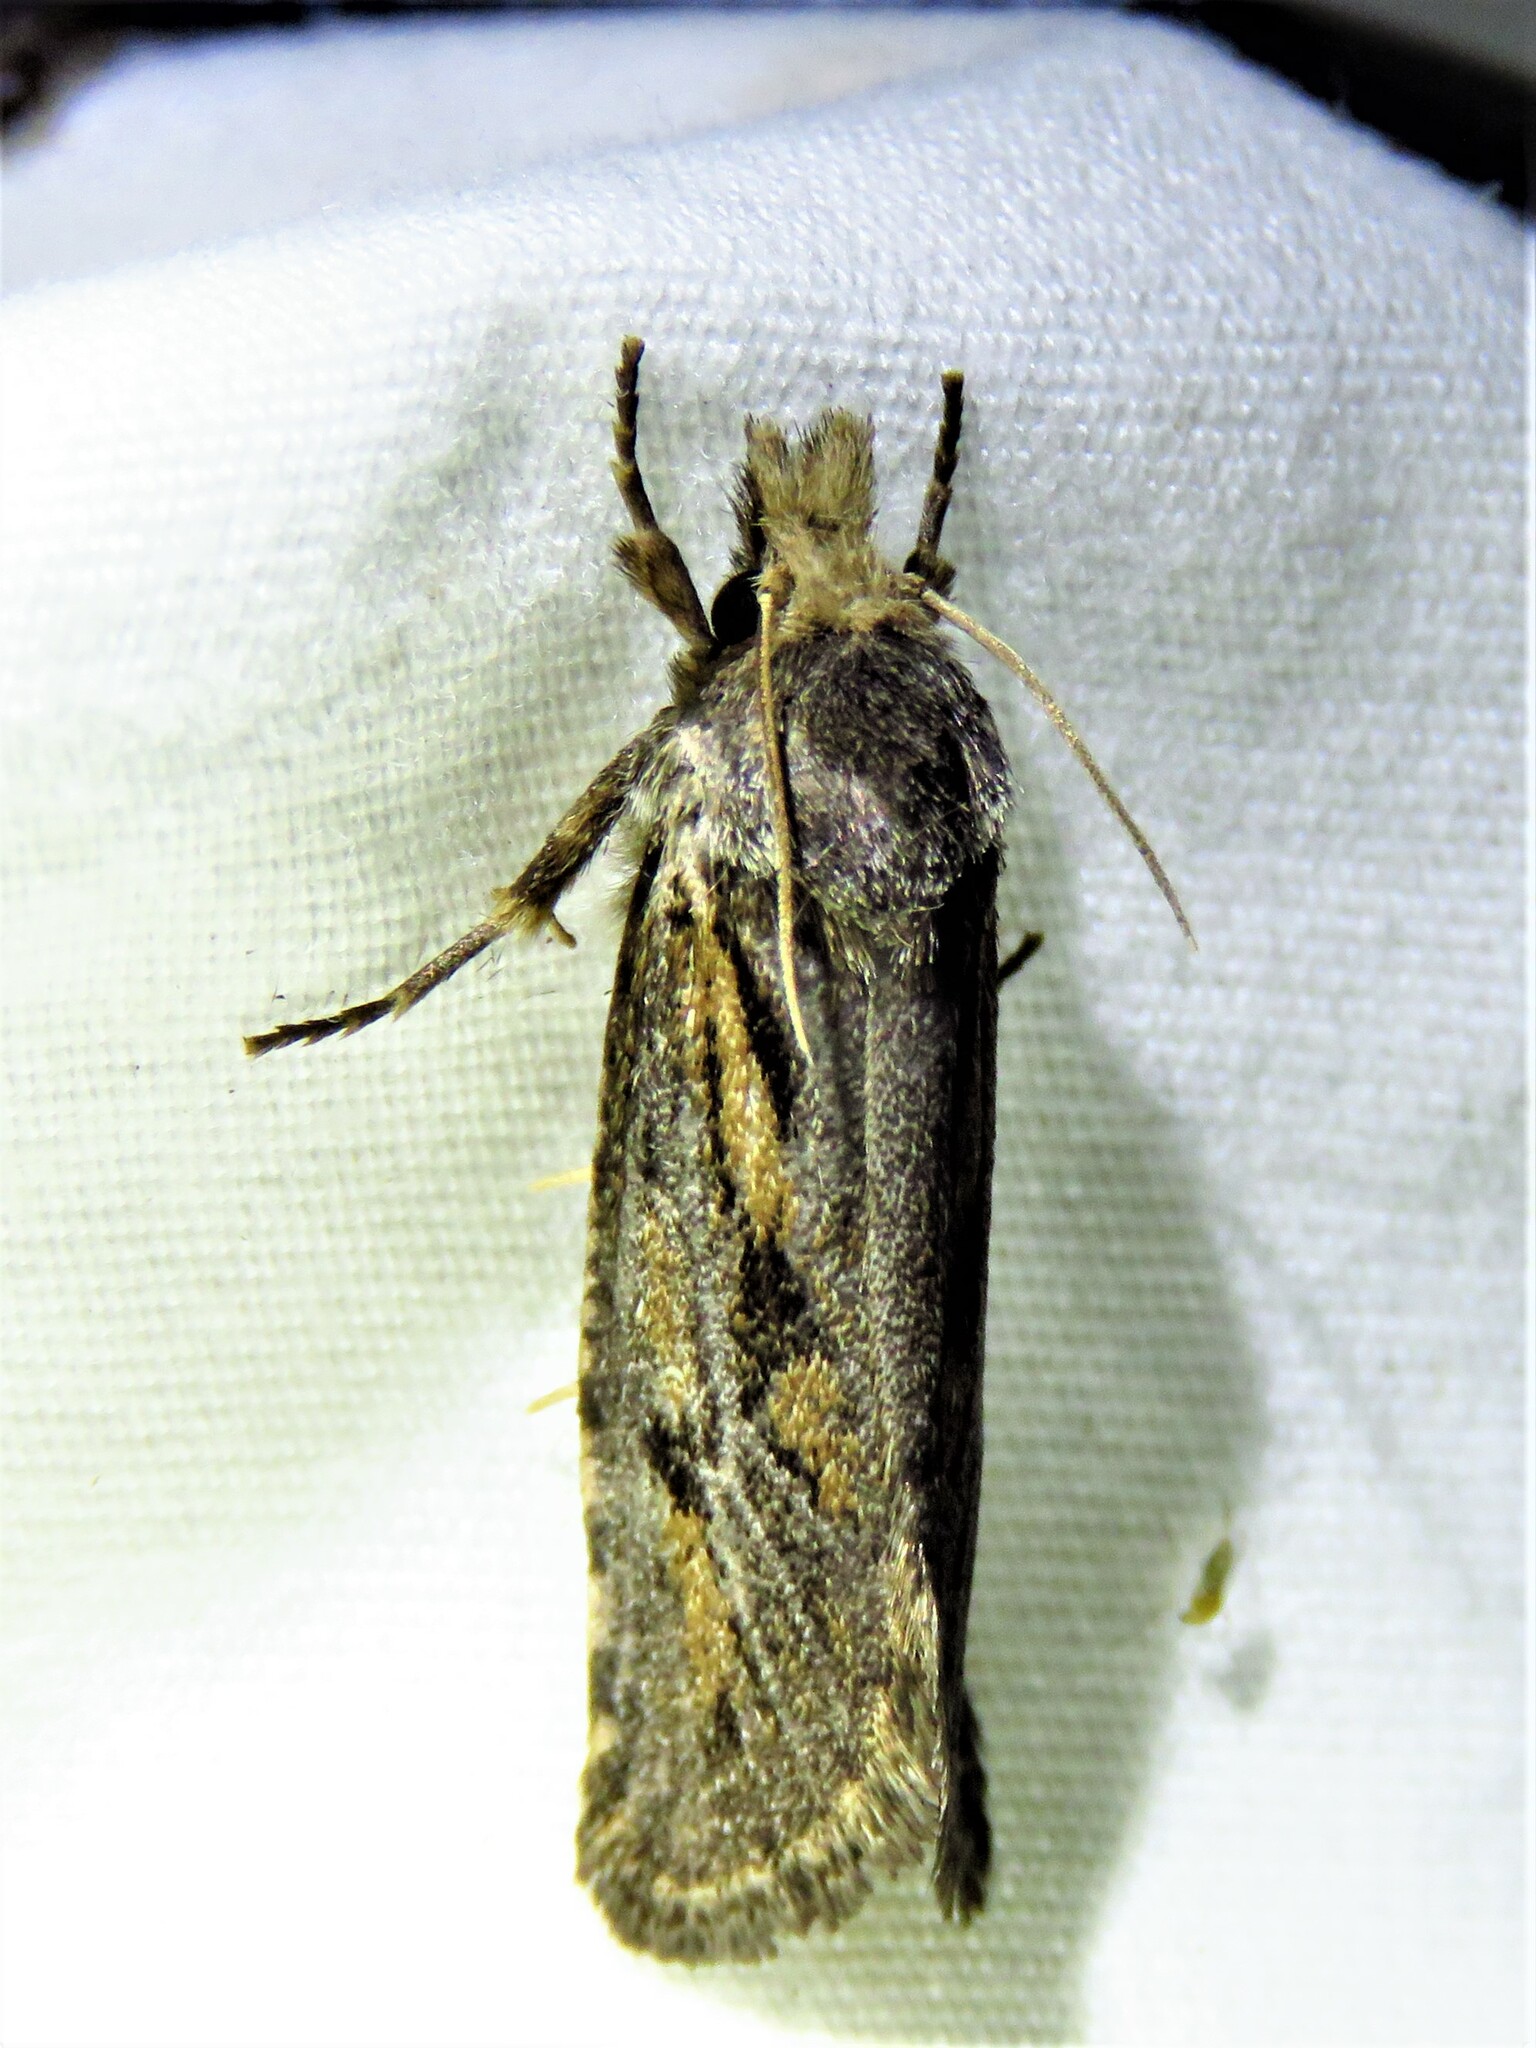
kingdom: Animalia
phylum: Arthropoda
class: Insecta
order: Lepidoptera
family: Tineidae
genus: Acrolophus
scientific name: Acrolophus popeanella
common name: Clemens' grass tubeworm moth
